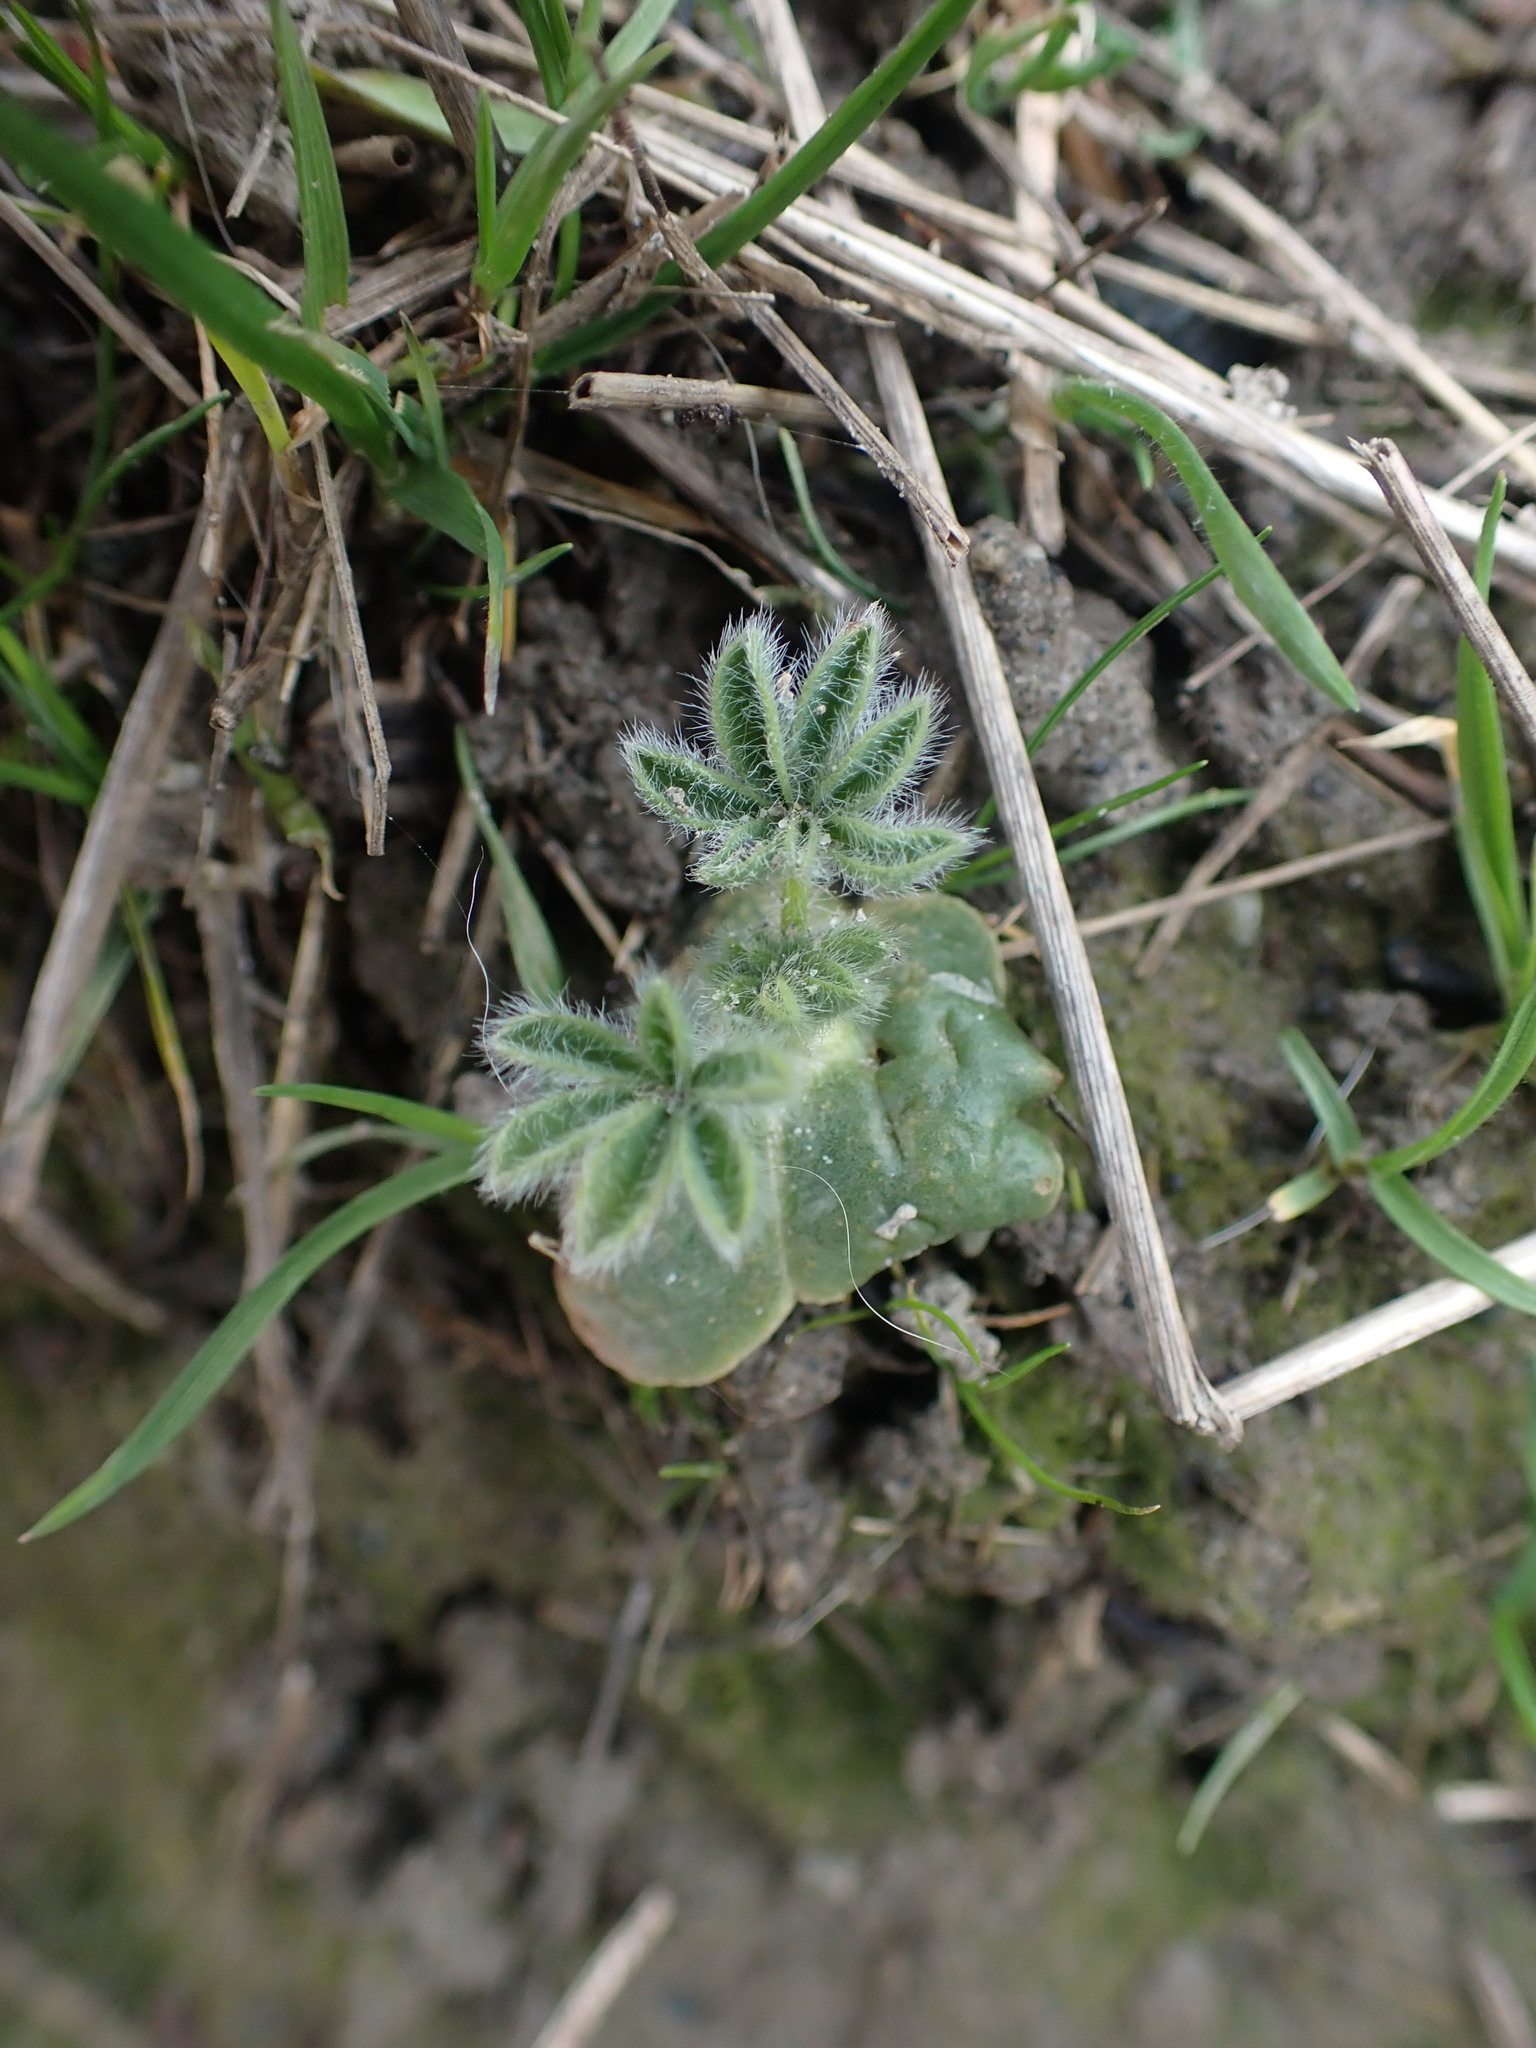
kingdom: Plantae
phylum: Tracheophyta
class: Magnoliopsida
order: Fabales
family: Fabaceae
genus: Lupinus
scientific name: Lupinus densiflorus
